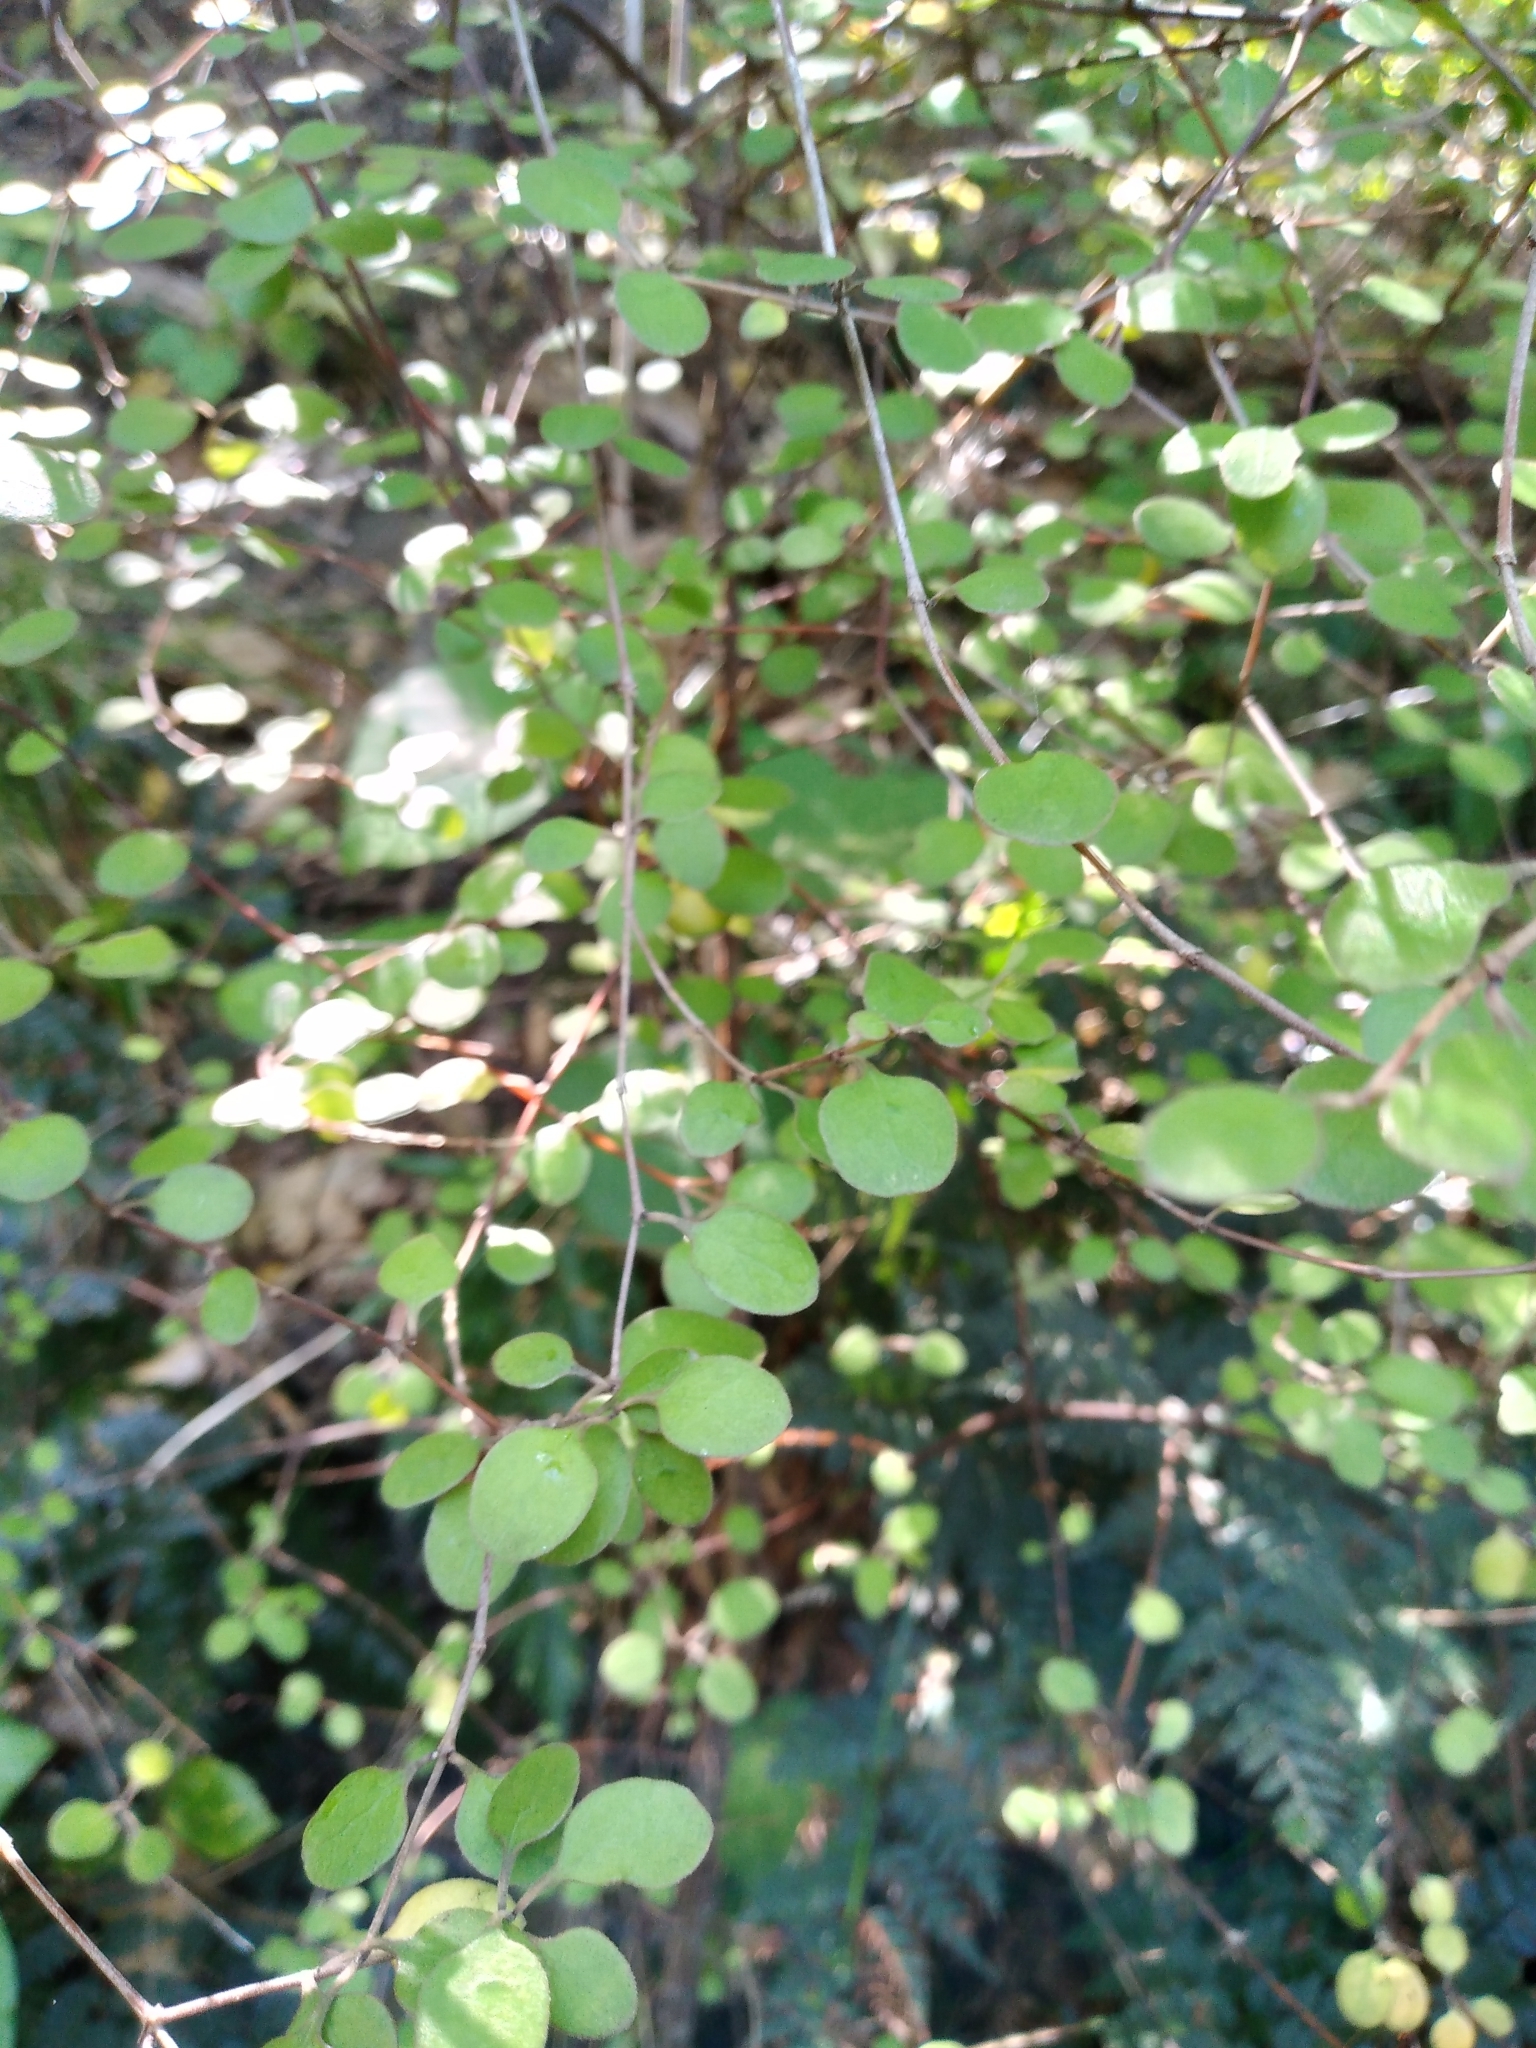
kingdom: Plantae
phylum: Tracheophyta
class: Magnoliopsida
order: Gentianales
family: Rubiaceae
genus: Coprosma
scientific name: Coprosma crassifolia
